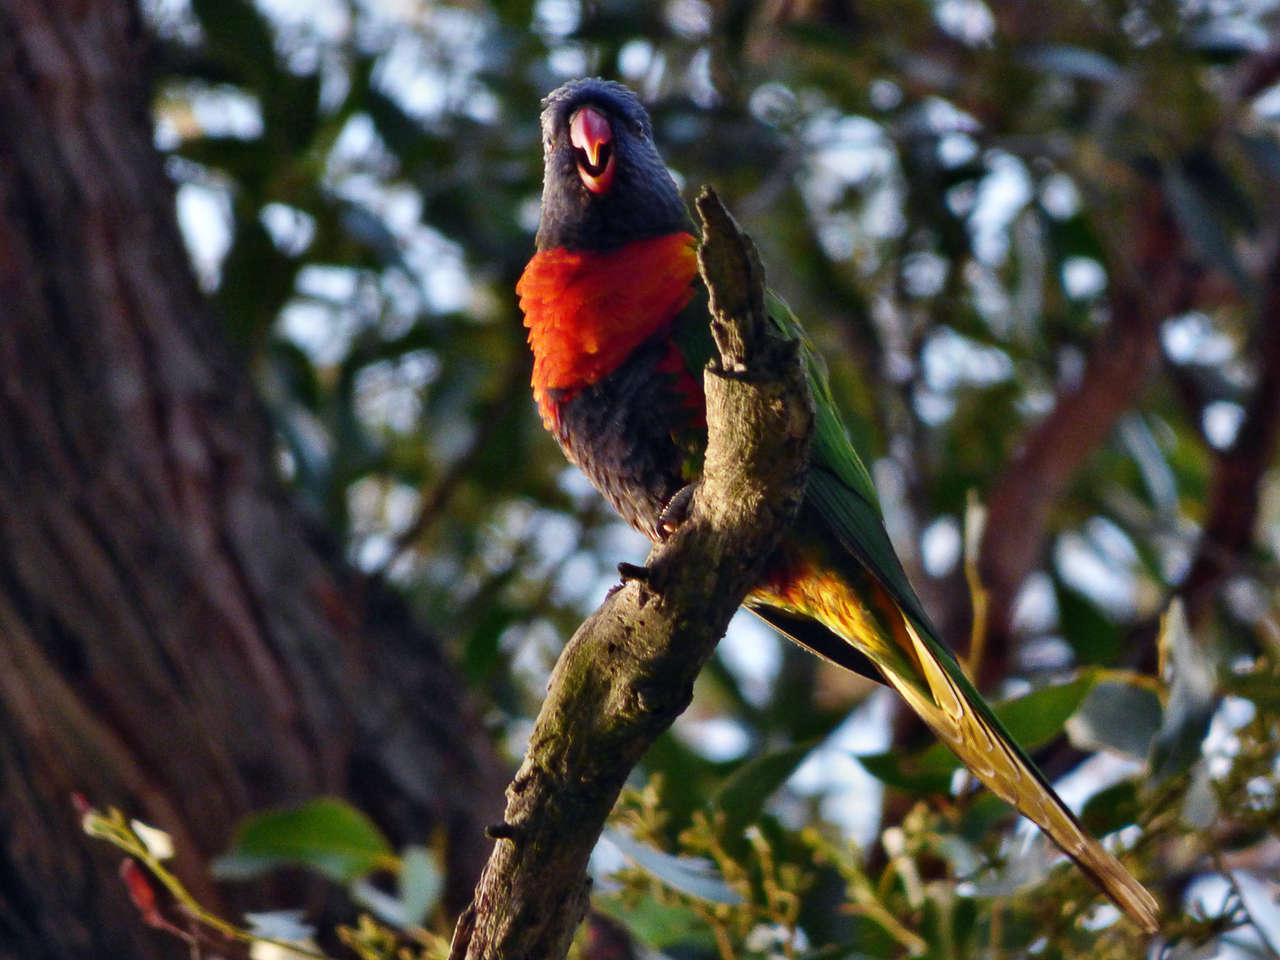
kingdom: Animalia
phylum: Chordata
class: Aves
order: Psittaciformes
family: Psittacidae
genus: Trichoglossus
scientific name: Trichoglossus haematodus
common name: Coconut lorikeet
